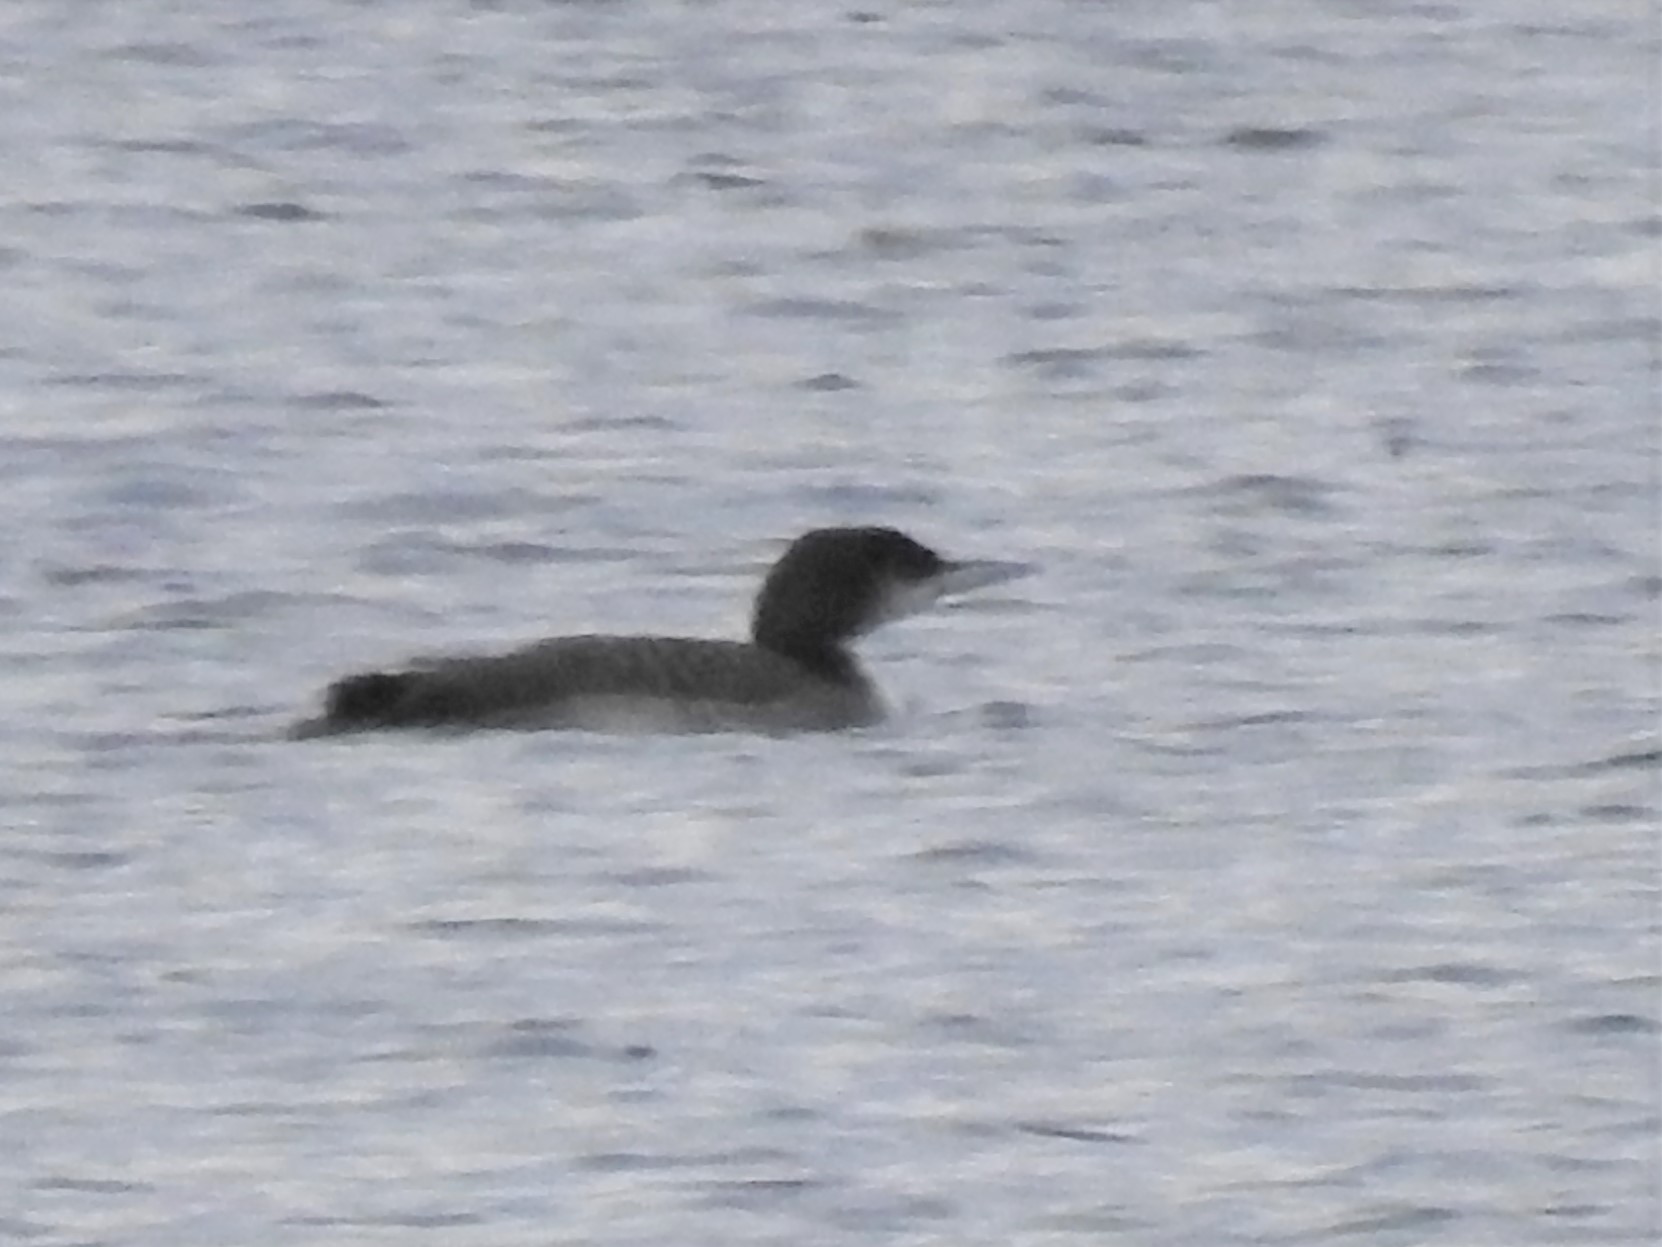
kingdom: Animalia
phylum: Chordata
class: Aves
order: Gaviiformes
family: Gaviidae
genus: Gavia
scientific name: Gavia immer
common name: Common loon
